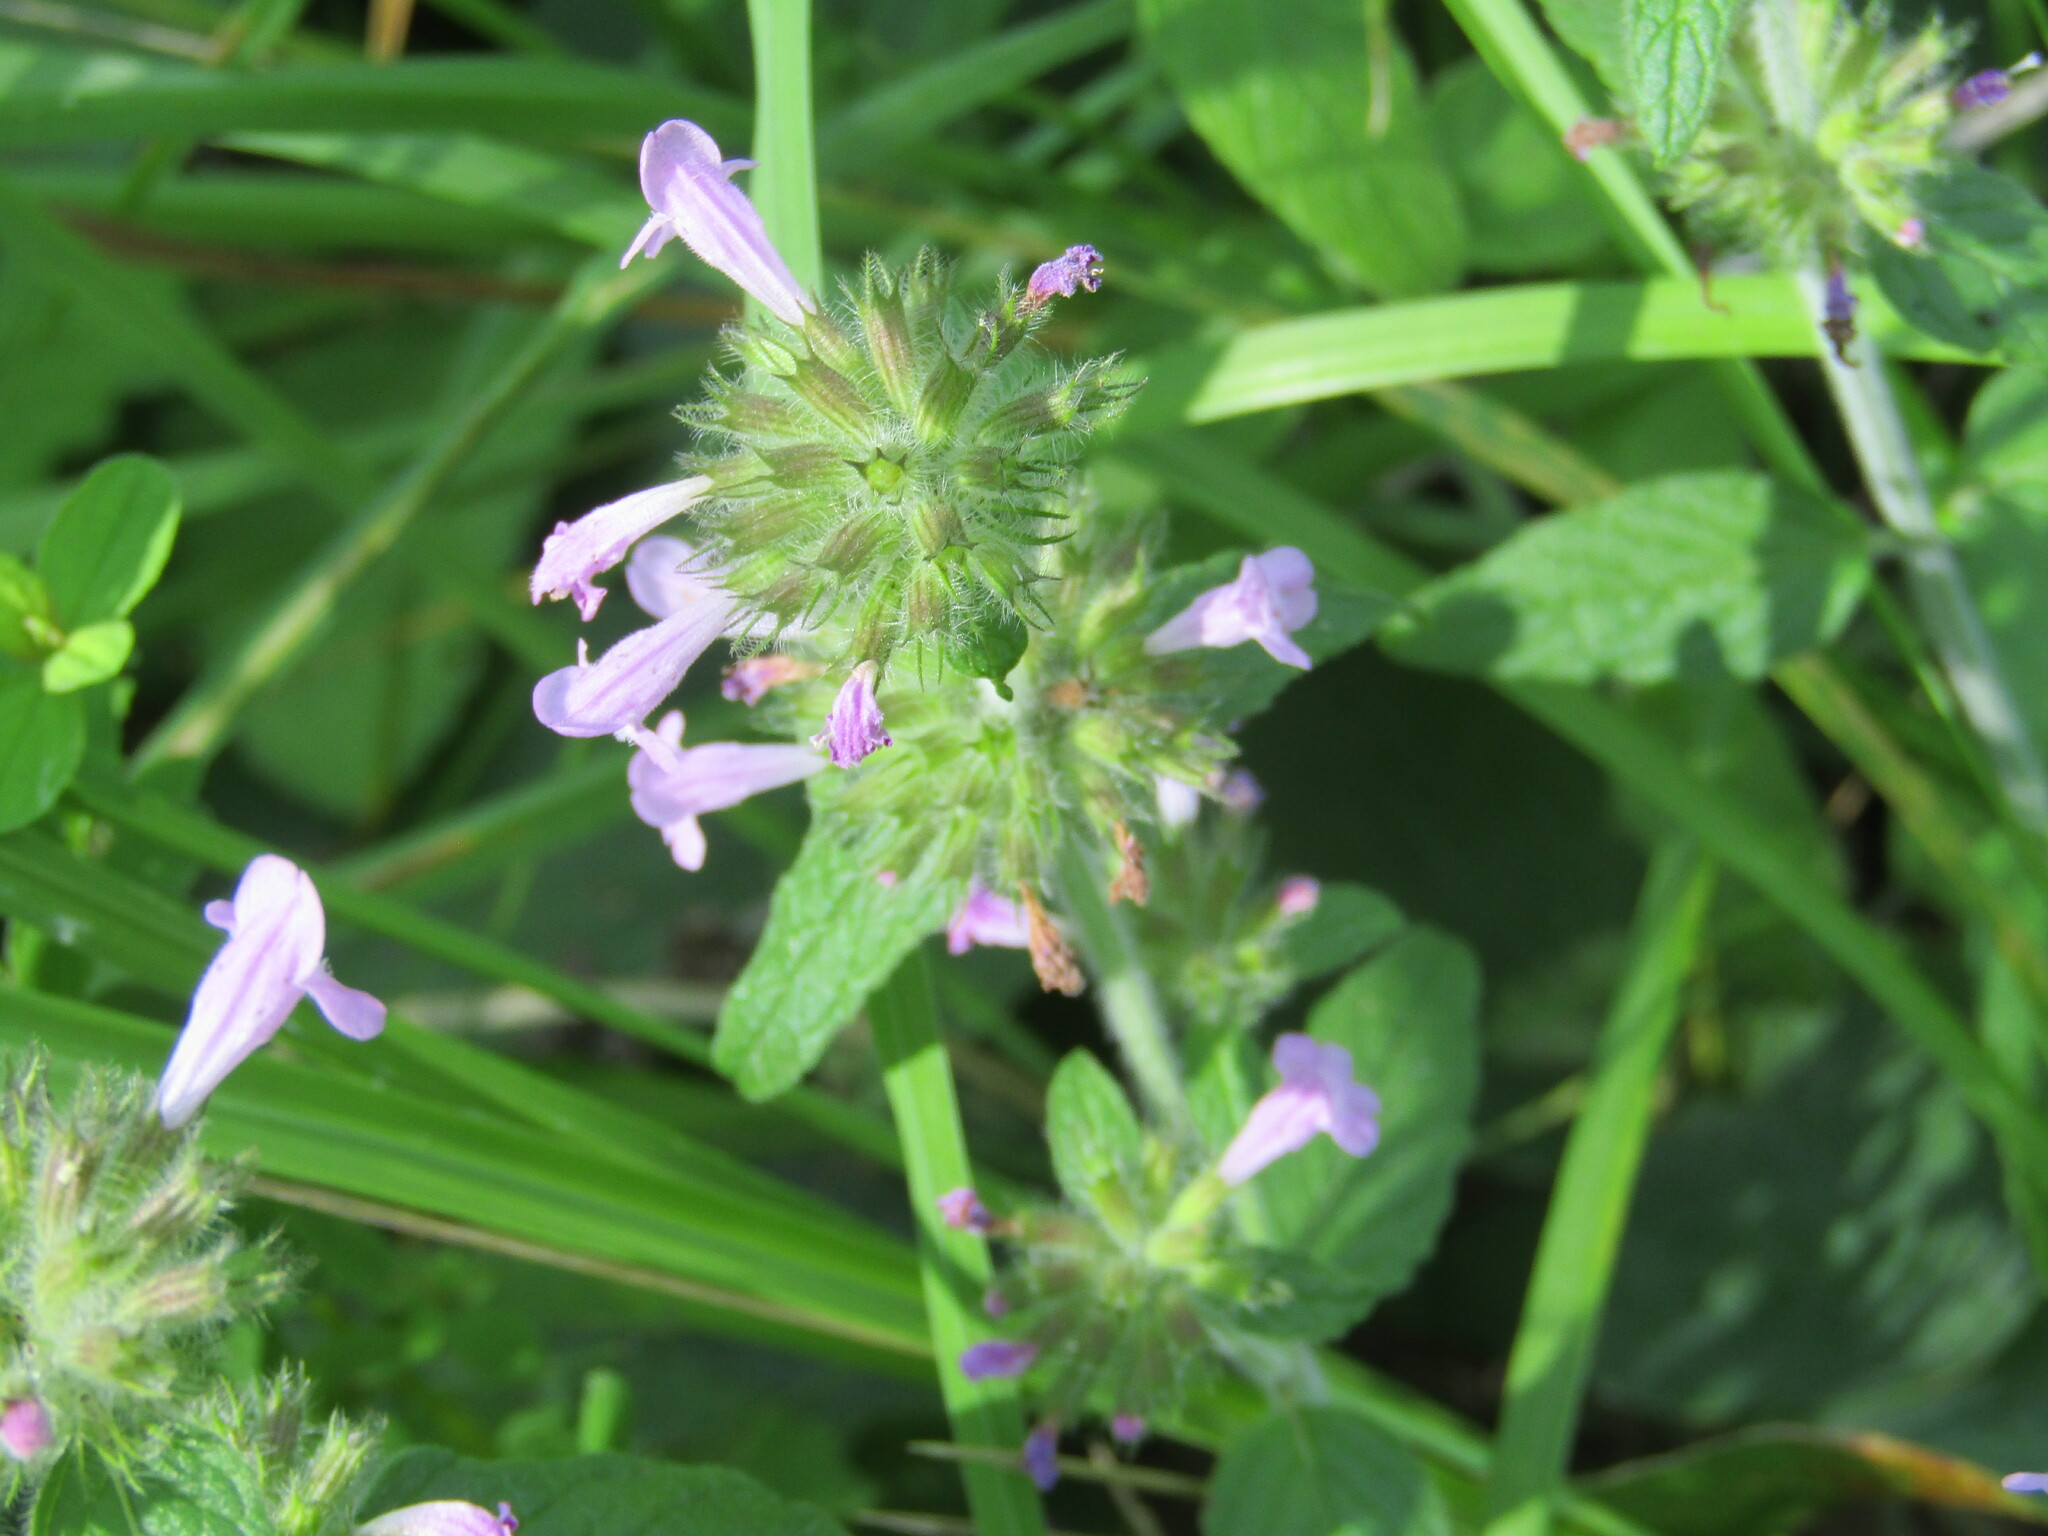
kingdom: Plantae
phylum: Tracheophyta
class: Magnoliopsida
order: Lamiales
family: Lamiaceae
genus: Clinopodium
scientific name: Clinopodium vulgare
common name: Wild basil
